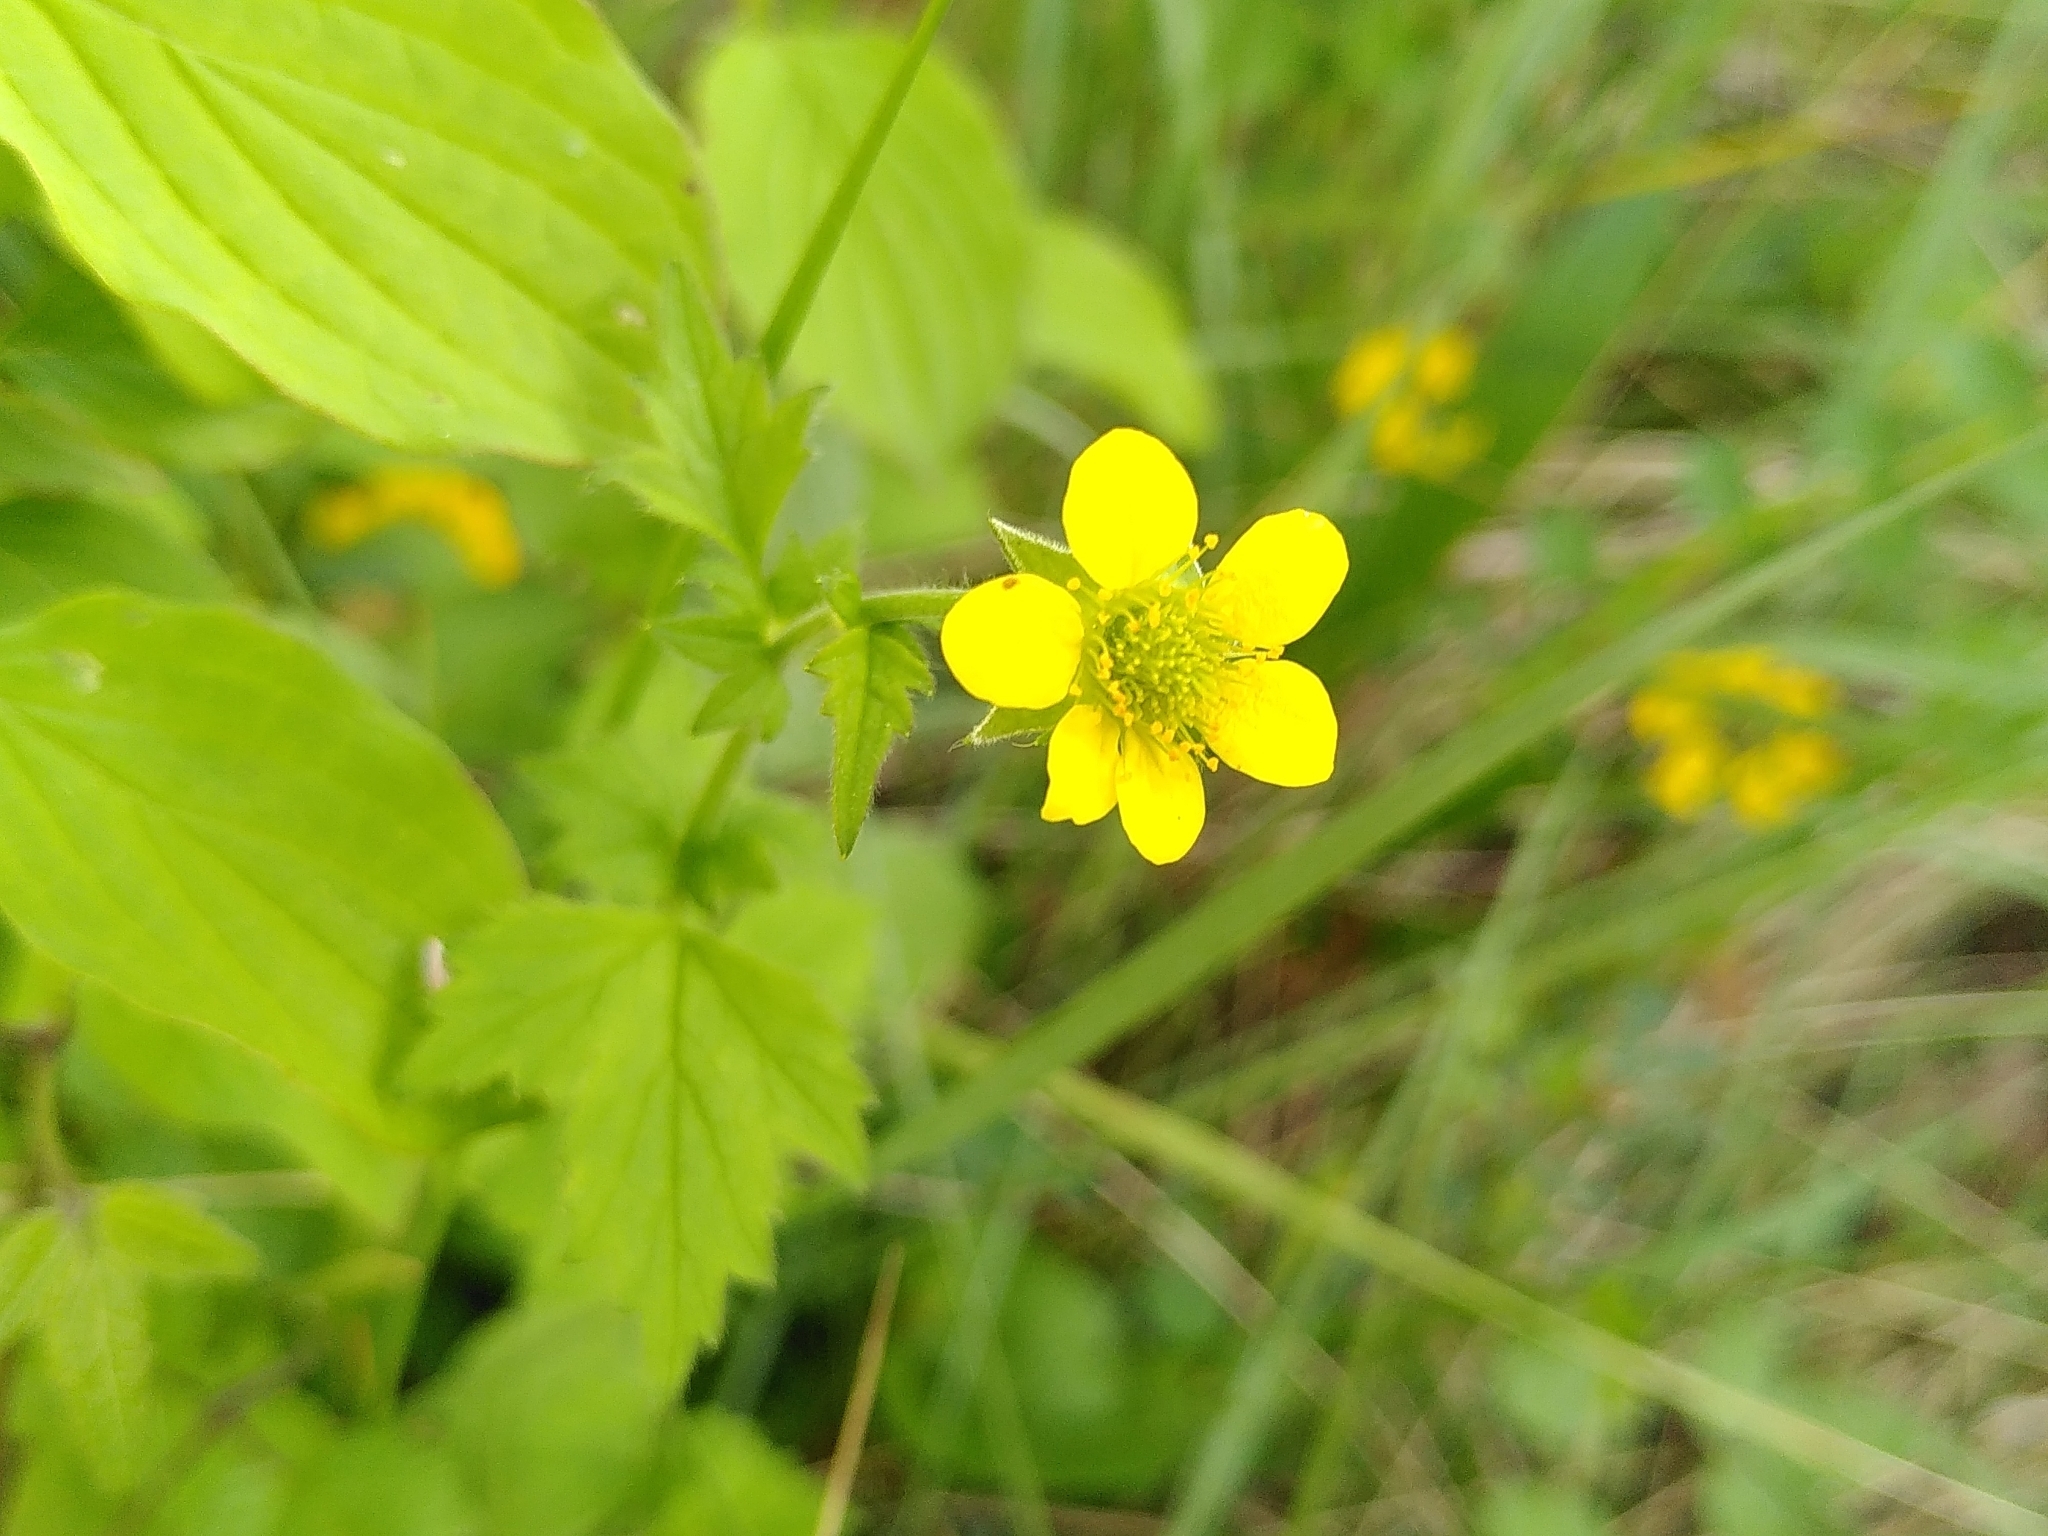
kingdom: Plantae
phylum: Tracheophyta
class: Magnoliopsida
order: Rosales
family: Rosaceae
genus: Geum
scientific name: Geum urbanum
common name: Wood avens
